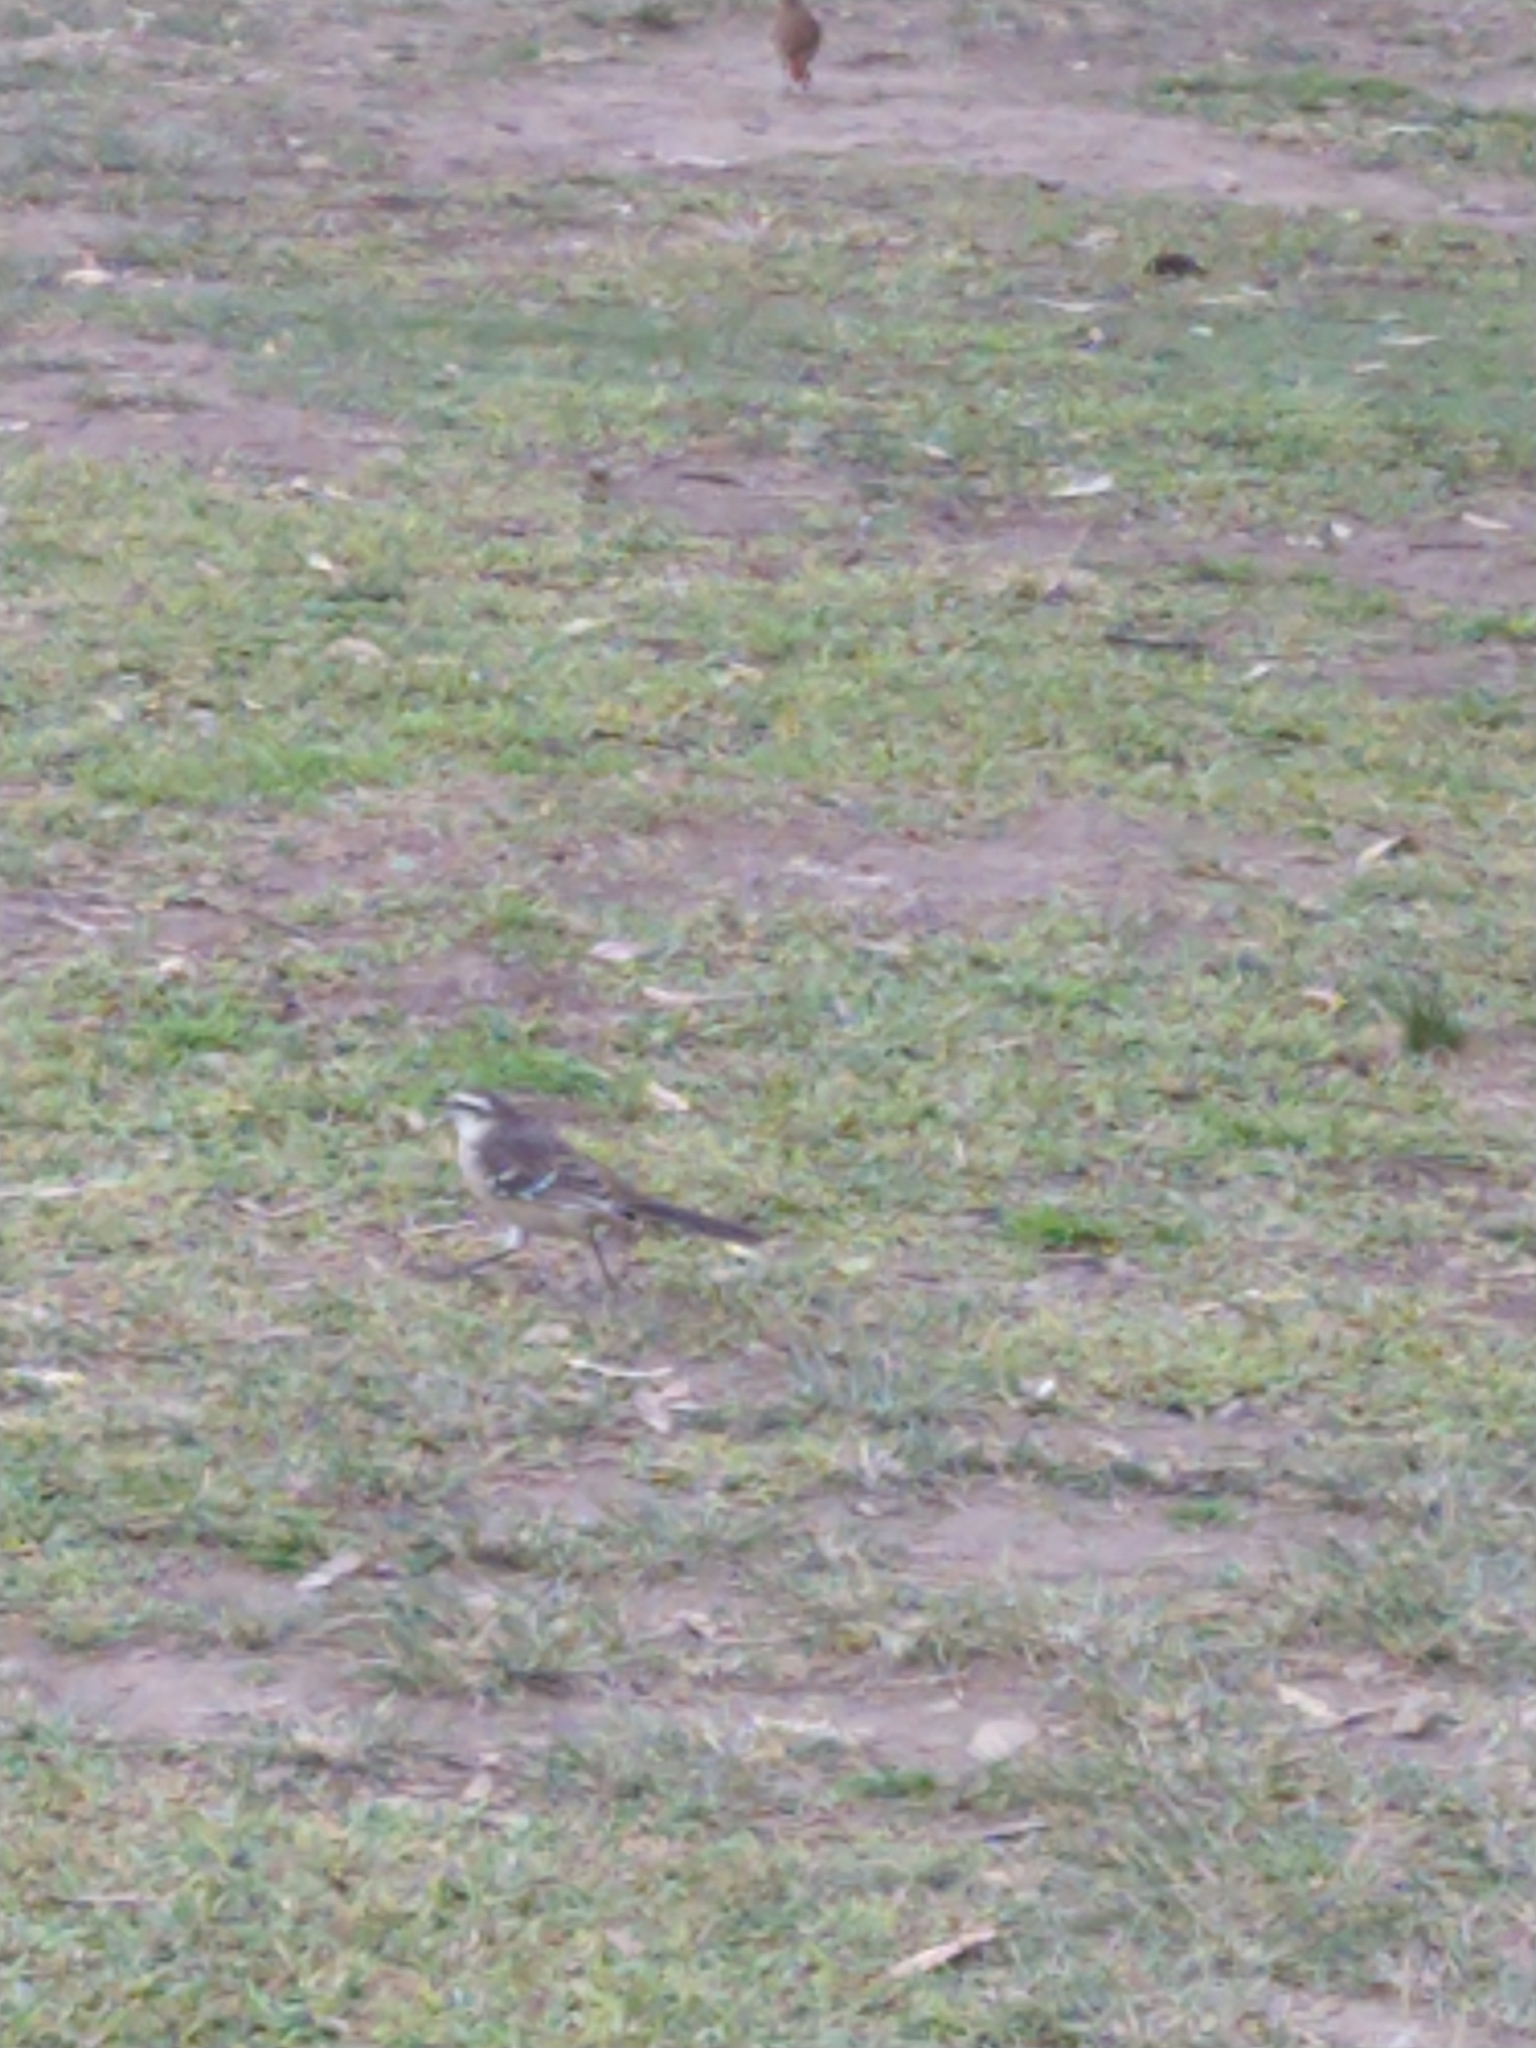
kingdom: Animalia
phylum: Chordata
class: Aves
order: Passeriformes
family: Mimidae
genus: Mimus
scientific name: Mimus saturninus
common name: Chalk-browed mockingbird
